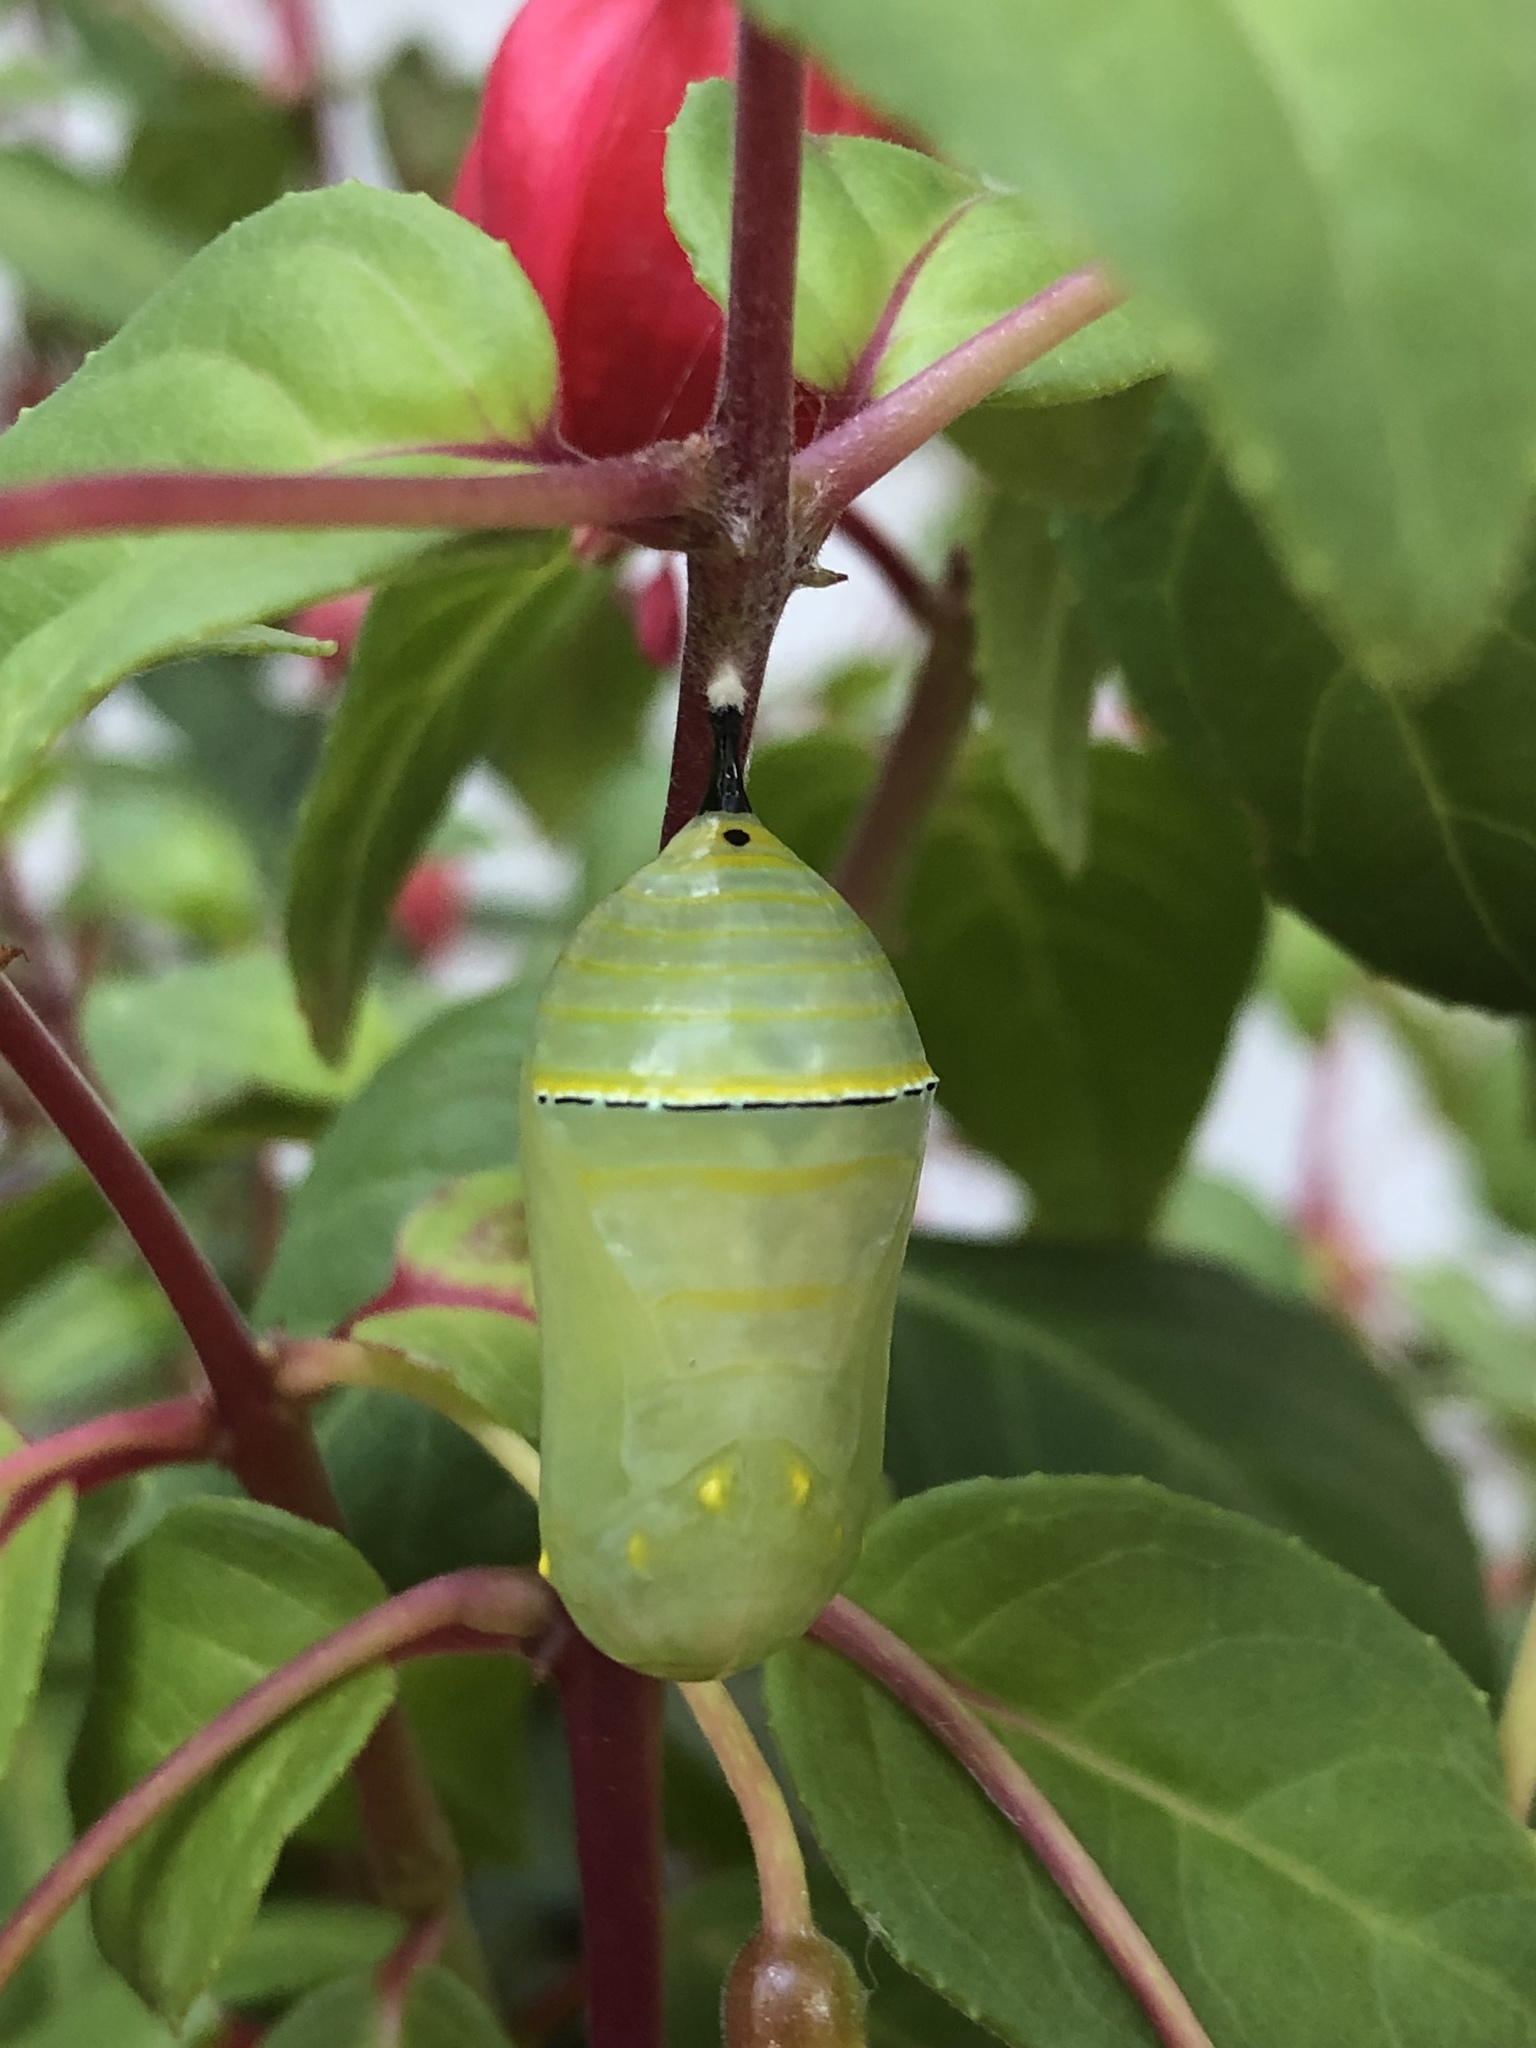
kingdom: Animalia
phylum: Arthropoda
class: Insecta
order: Lepidoptera
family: Nymphalidae
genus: Danaus
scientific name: Danaus plexippus
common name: Monarch
